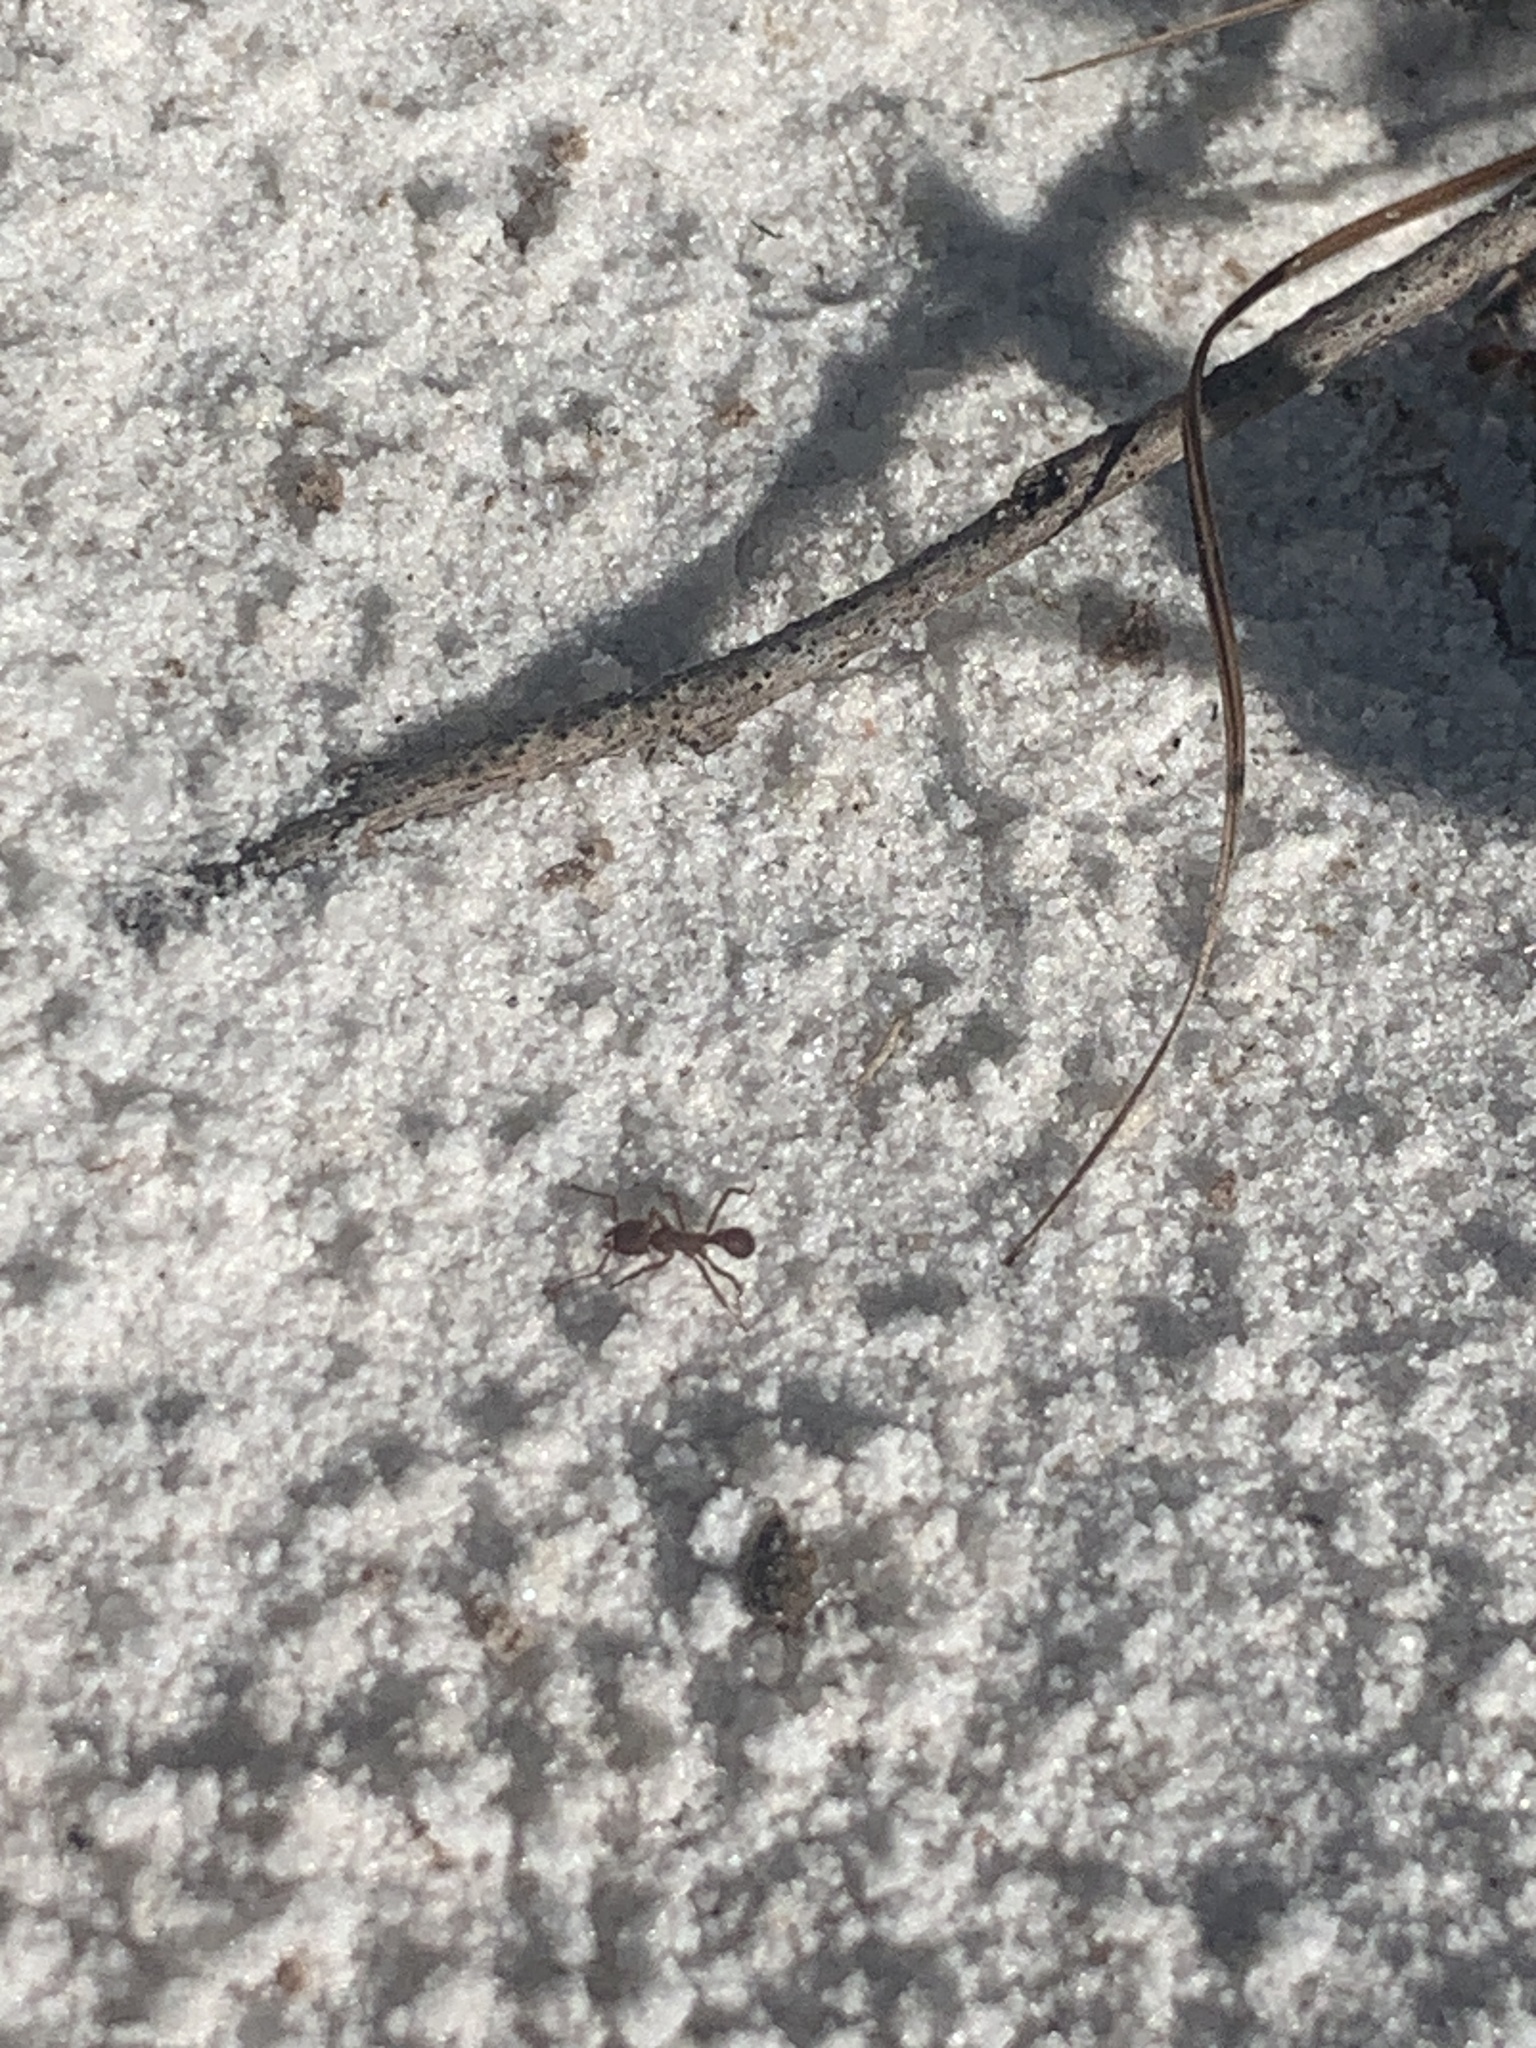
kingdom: Animalia
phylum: Arthropoda
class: Insecta
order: Hymenoptera
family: Formicidae
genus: Trachymyrmex
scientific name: Trachymyrmex septentrionalis
